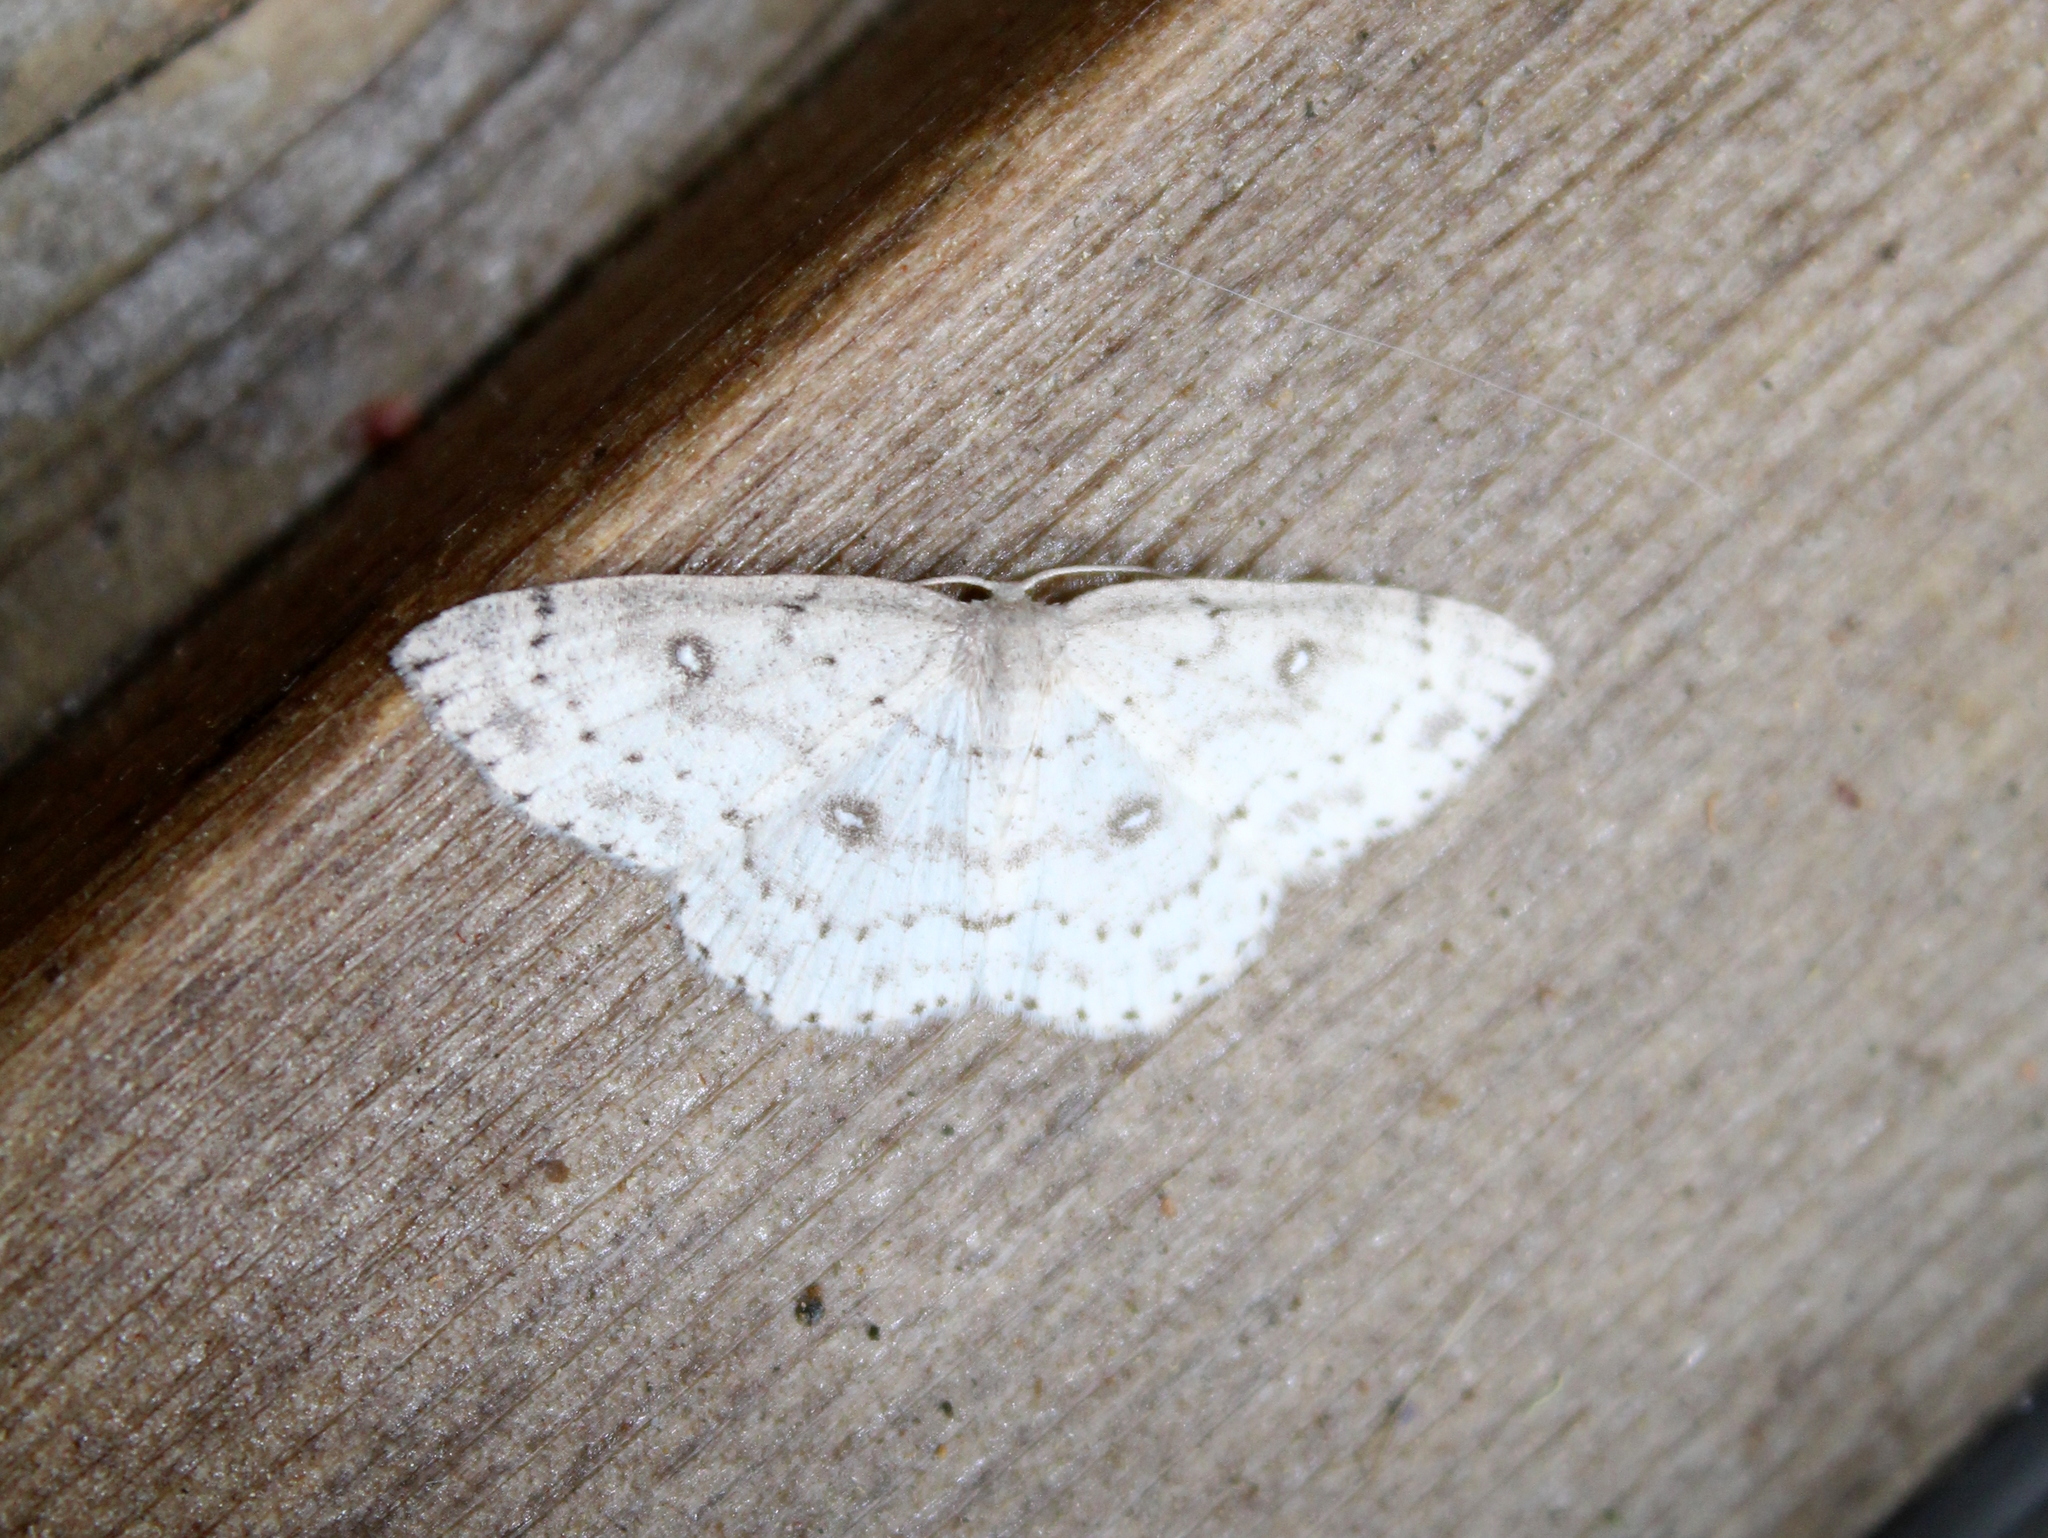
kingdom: Animalia
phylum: Arthropoda
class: Insecta
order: Lepidoptera
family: Geometridae
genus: Cyclophora
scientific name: Cyclophora pendulinaria
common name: Sweet fern geometer
